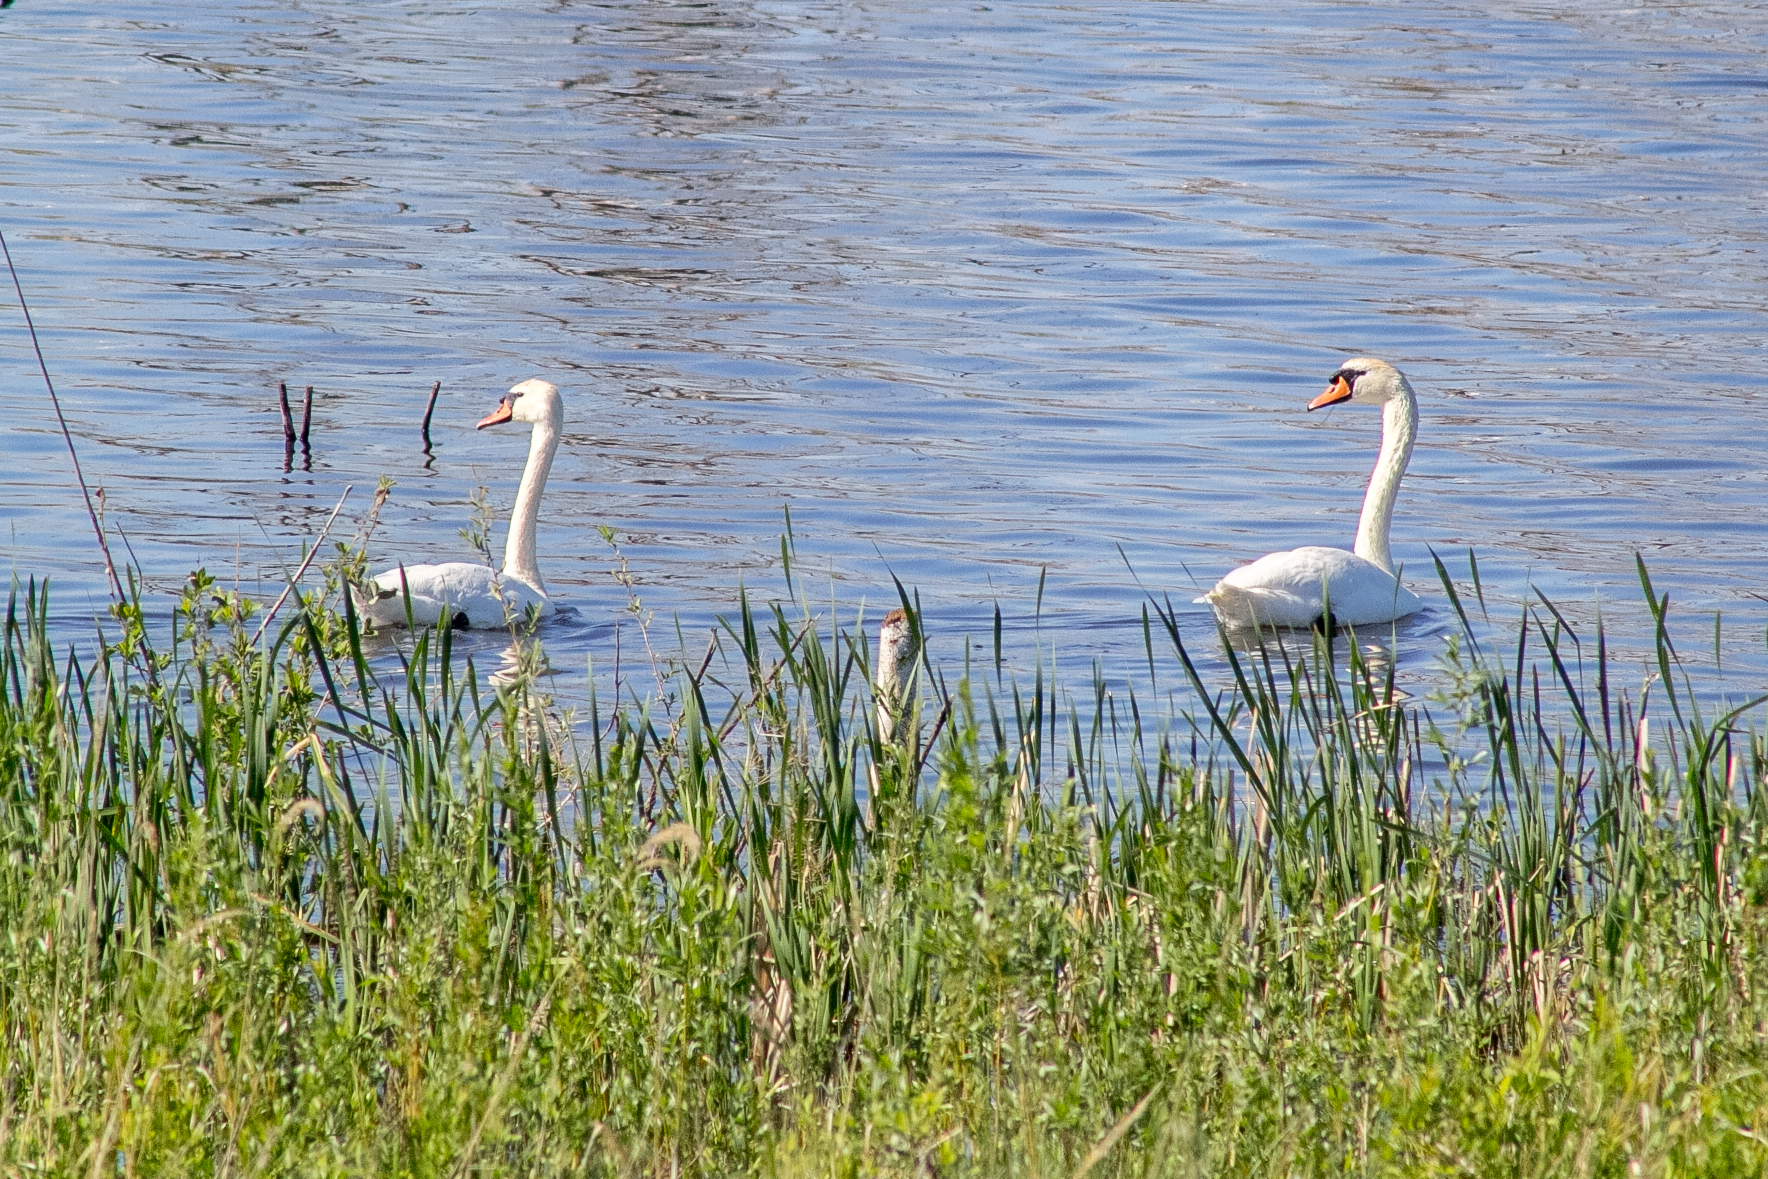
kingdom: Animalia
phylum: Chordata
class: Aves
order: Anseriformes
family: Anatidae
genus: Cygnus
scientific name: Cygnus olor
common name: Mute swan
